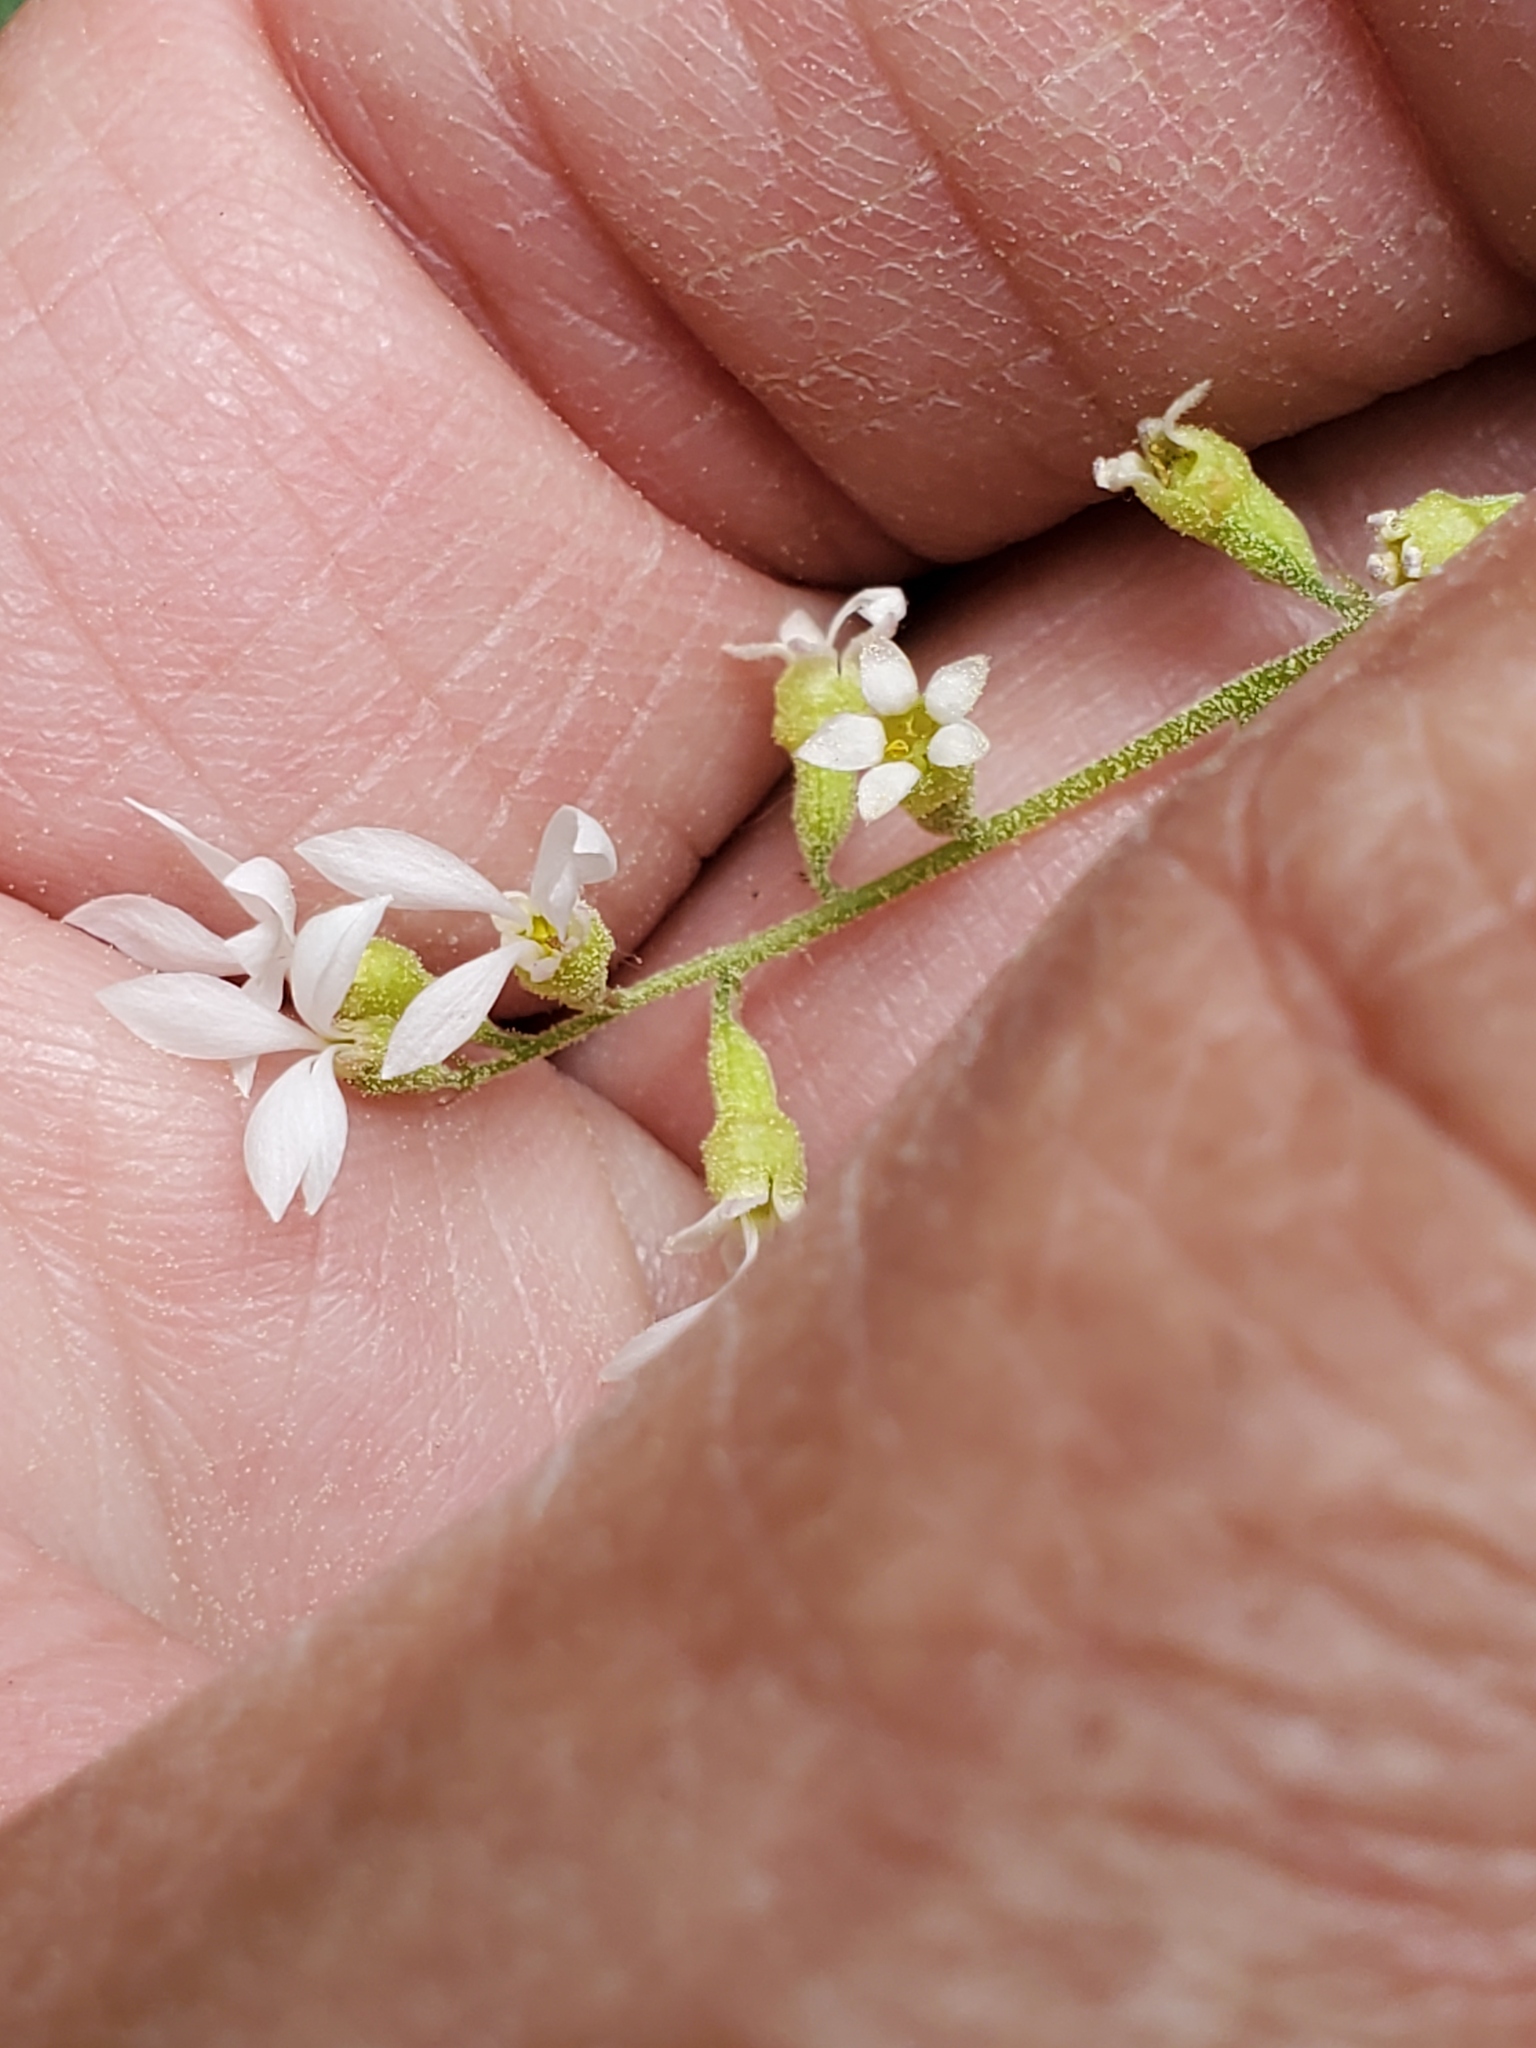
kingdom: Plantae
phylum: Tracheophyta
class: Magnoliopsida
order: Saxifragales
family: Saxifragaceae
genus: Conimitella
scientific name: Conimitella williamsii
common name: William's conimitella
